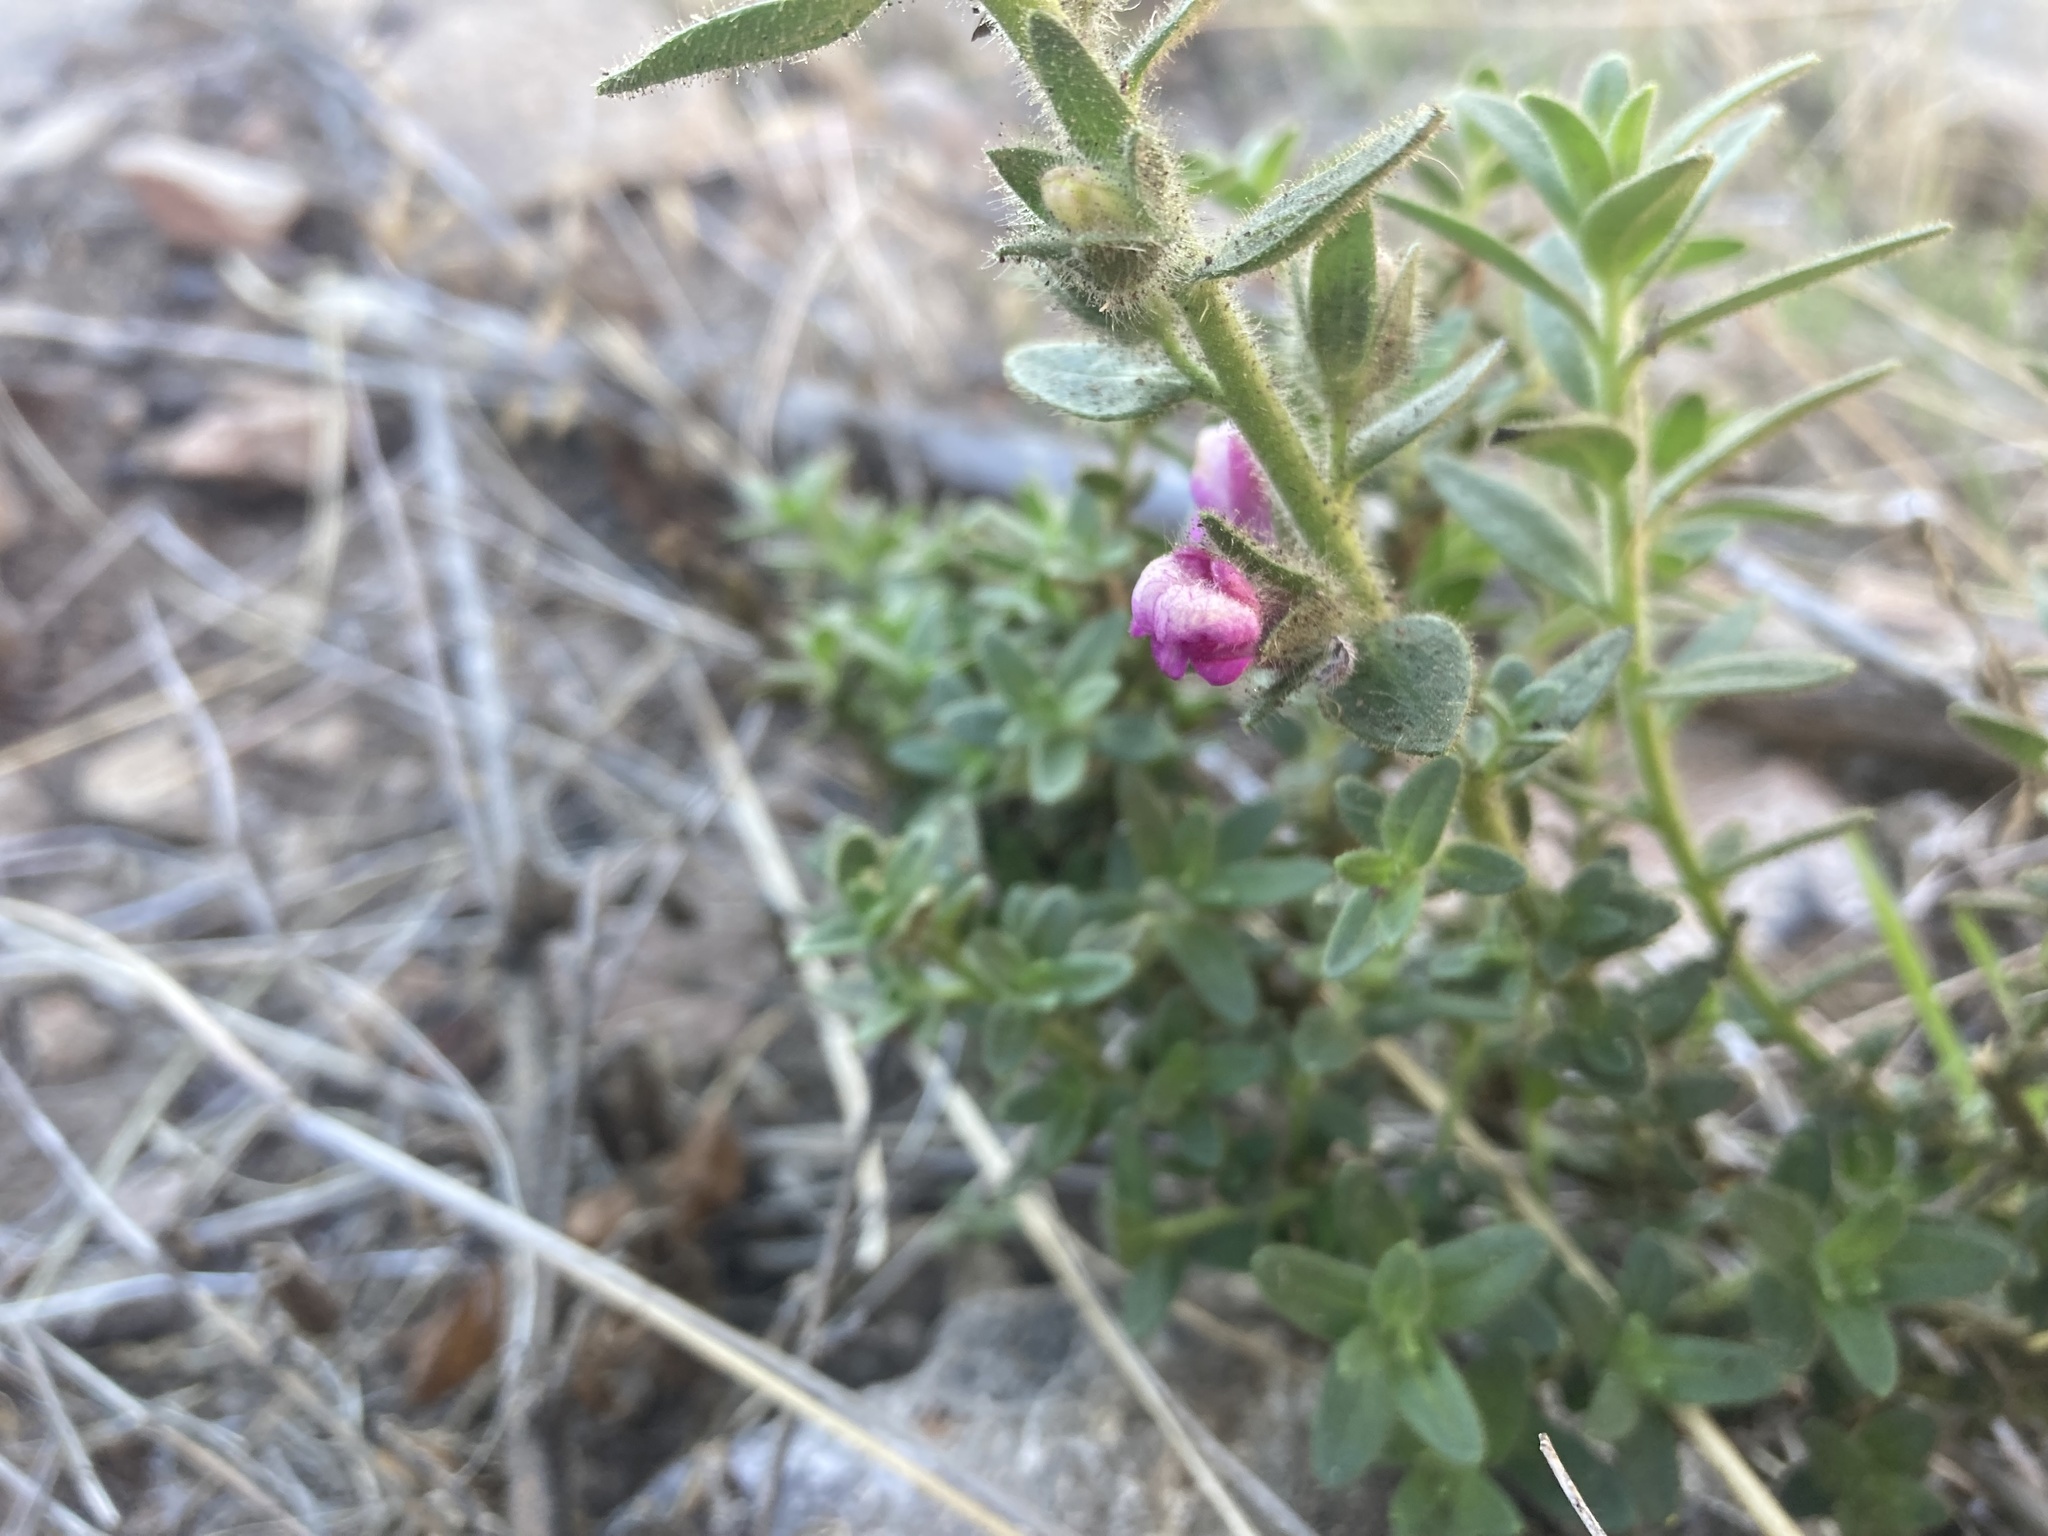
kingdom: Plantae
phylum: Tracheophyta
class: Magnoliopsida
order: Lamiales
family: Plantaginaceae
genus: Sairocarpus
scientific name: Sairocarpus multiflorus
